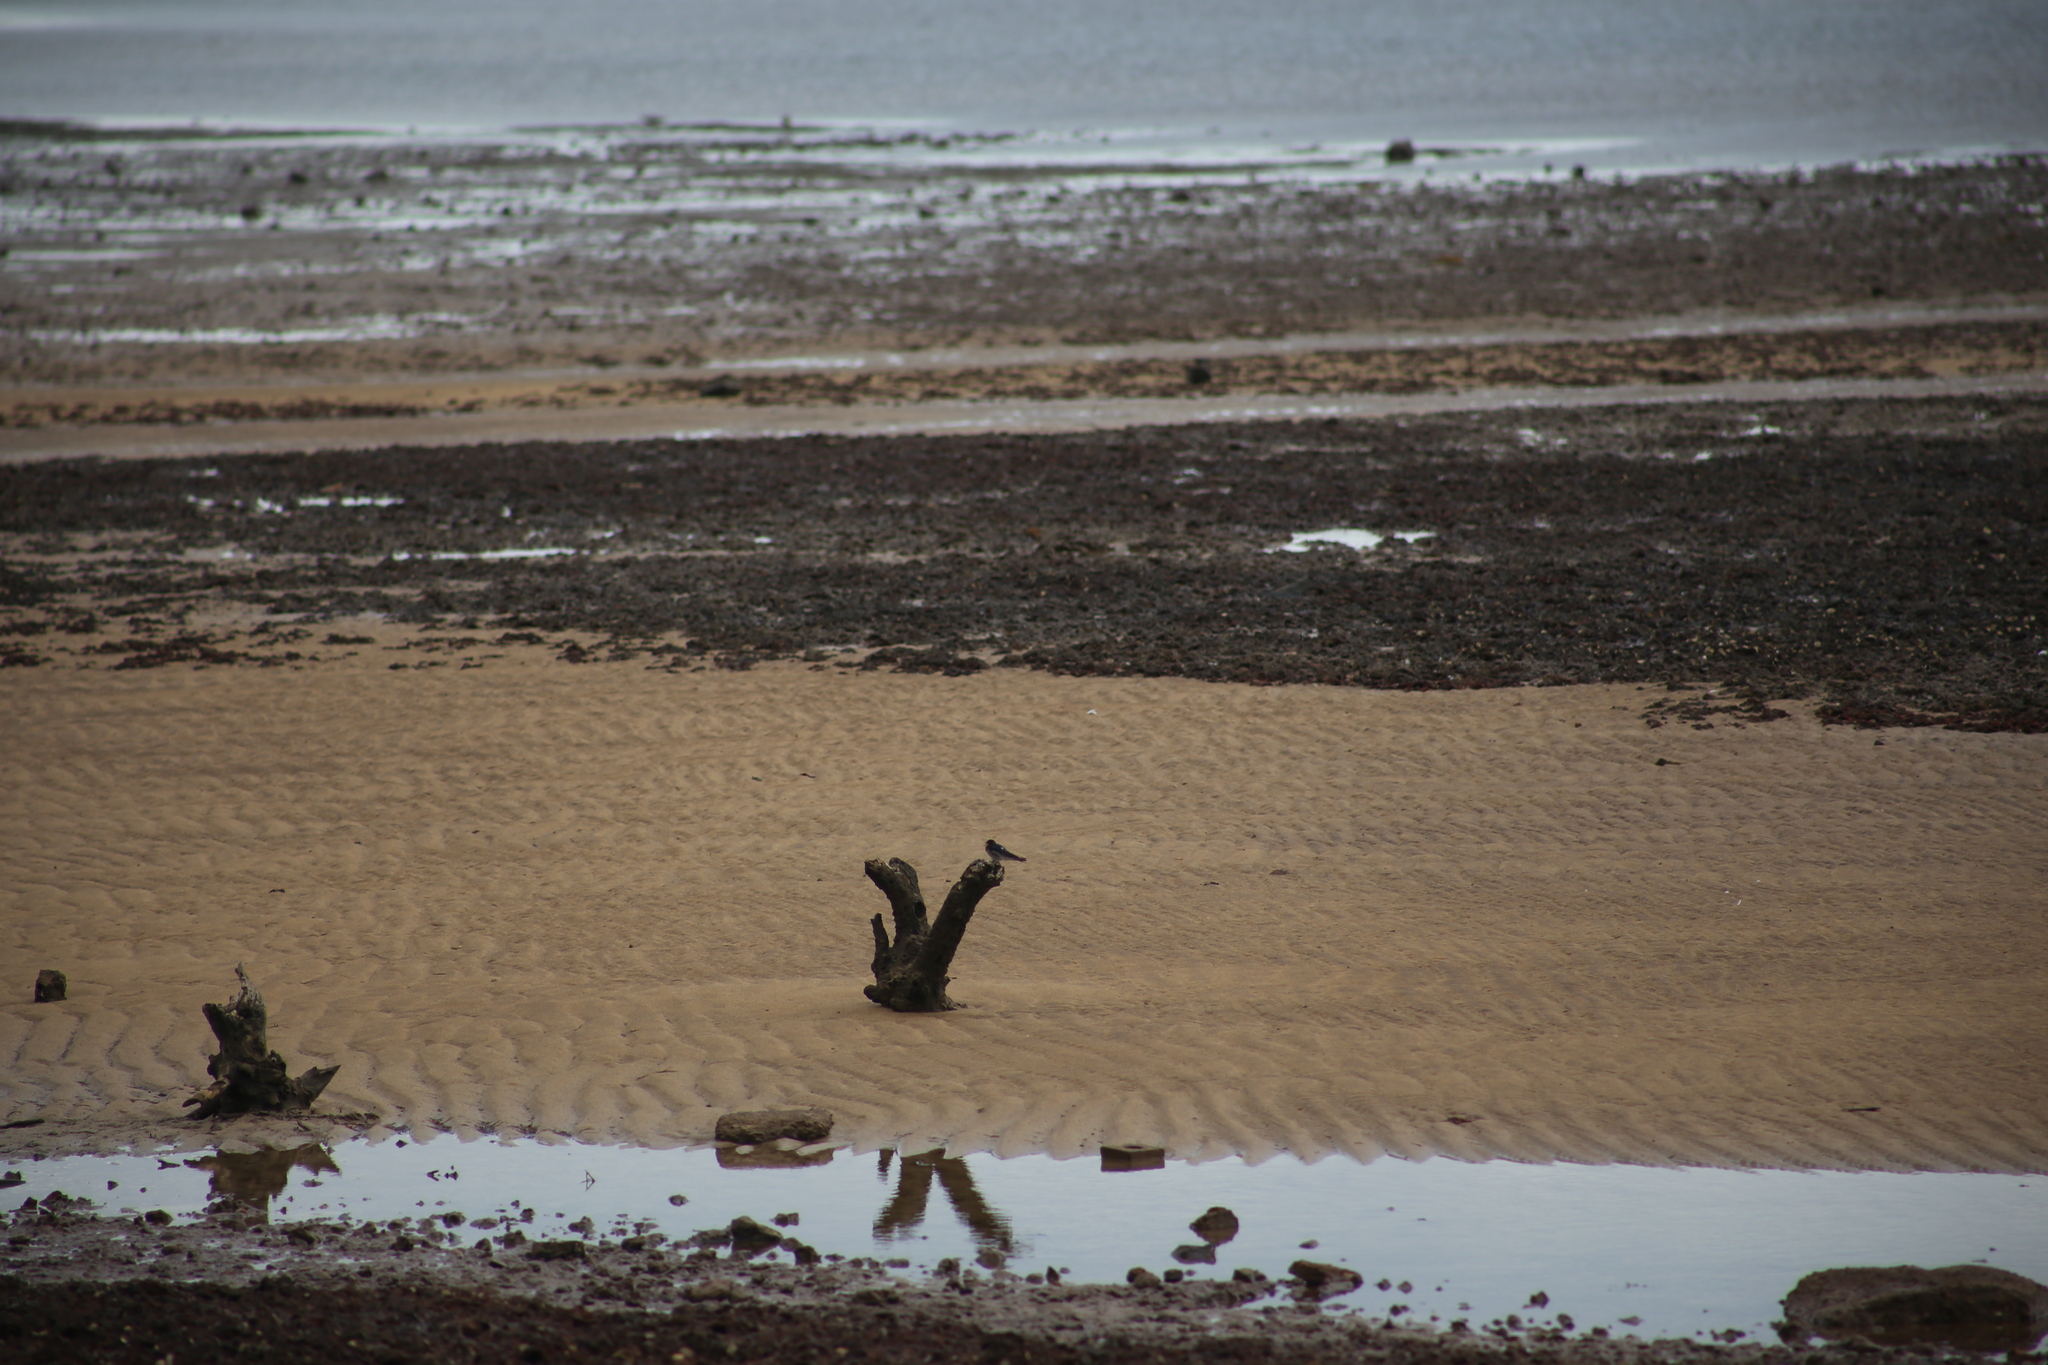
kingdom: Animalia
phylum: Chordata
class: Aves
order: Passeriformes
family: Hirundinidae
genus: Hirundo
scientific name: Hirundo neoxena
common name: Welcome swallow
